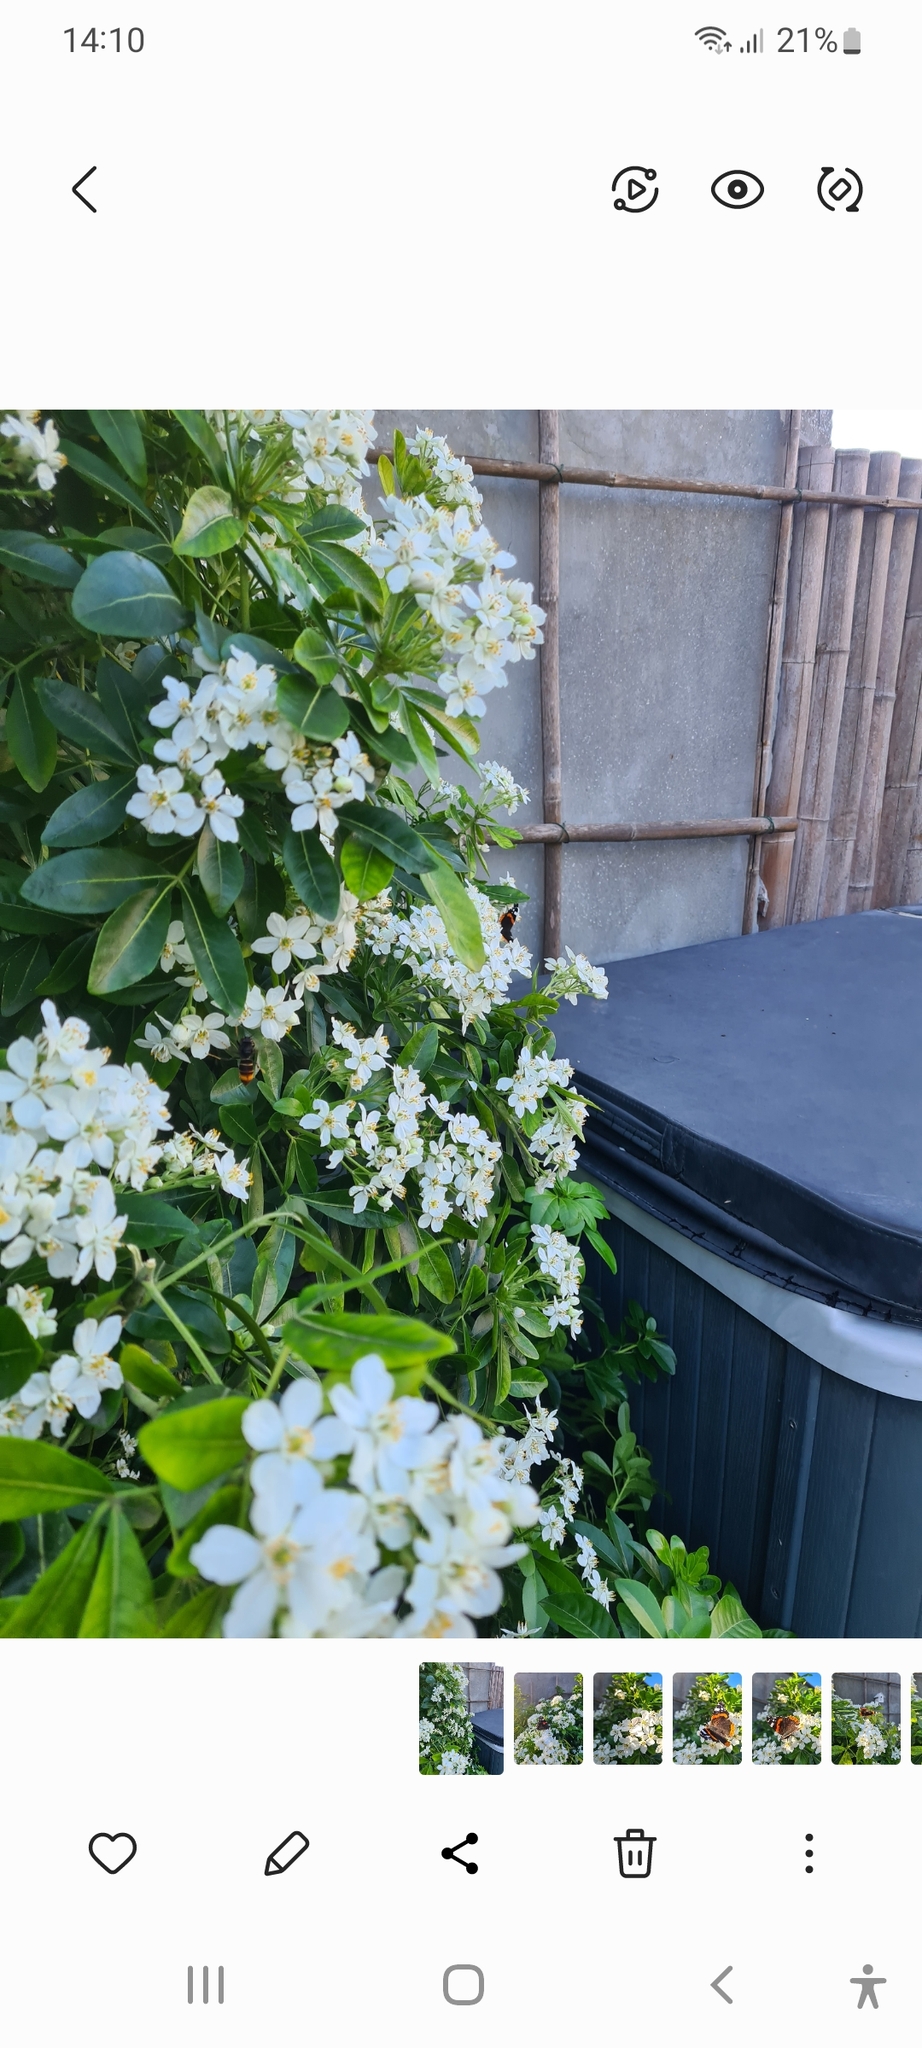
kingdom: Animalia
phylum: Arthropoda
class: Insecta
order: Hymenoptera
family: Vespidae
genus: Vespa
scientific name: Vespa velutina
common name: Asian hornet
